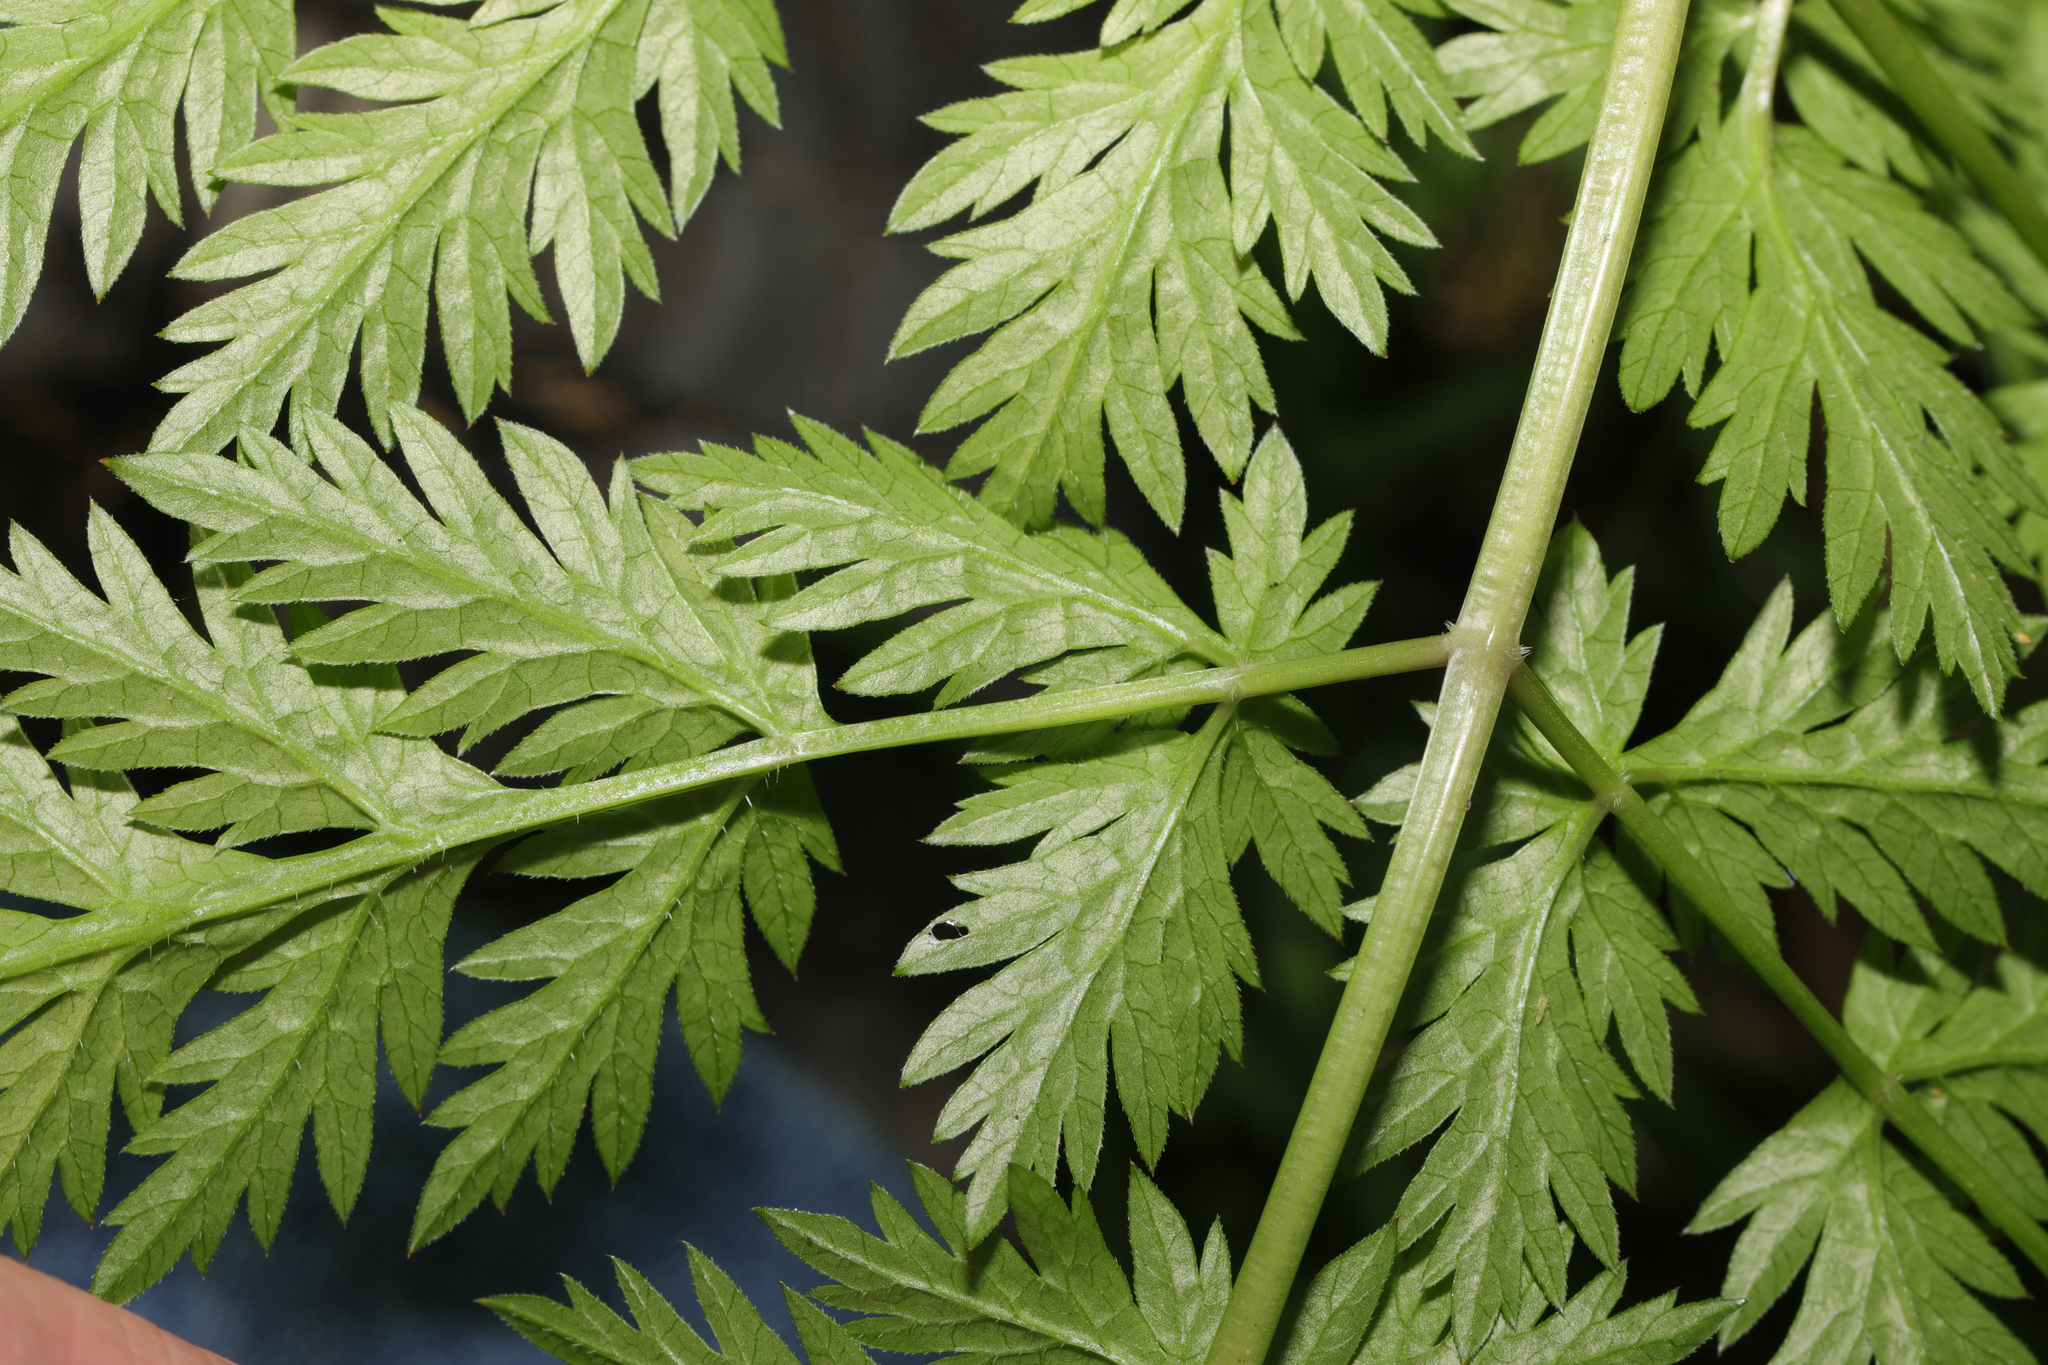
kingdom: Plantae
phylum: Tracheophyta
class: Magnoliopsida
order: Apiales
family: Apiaceae
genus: Anthriscus
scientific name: Anthriscus sylvestris
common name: Cow parsley
